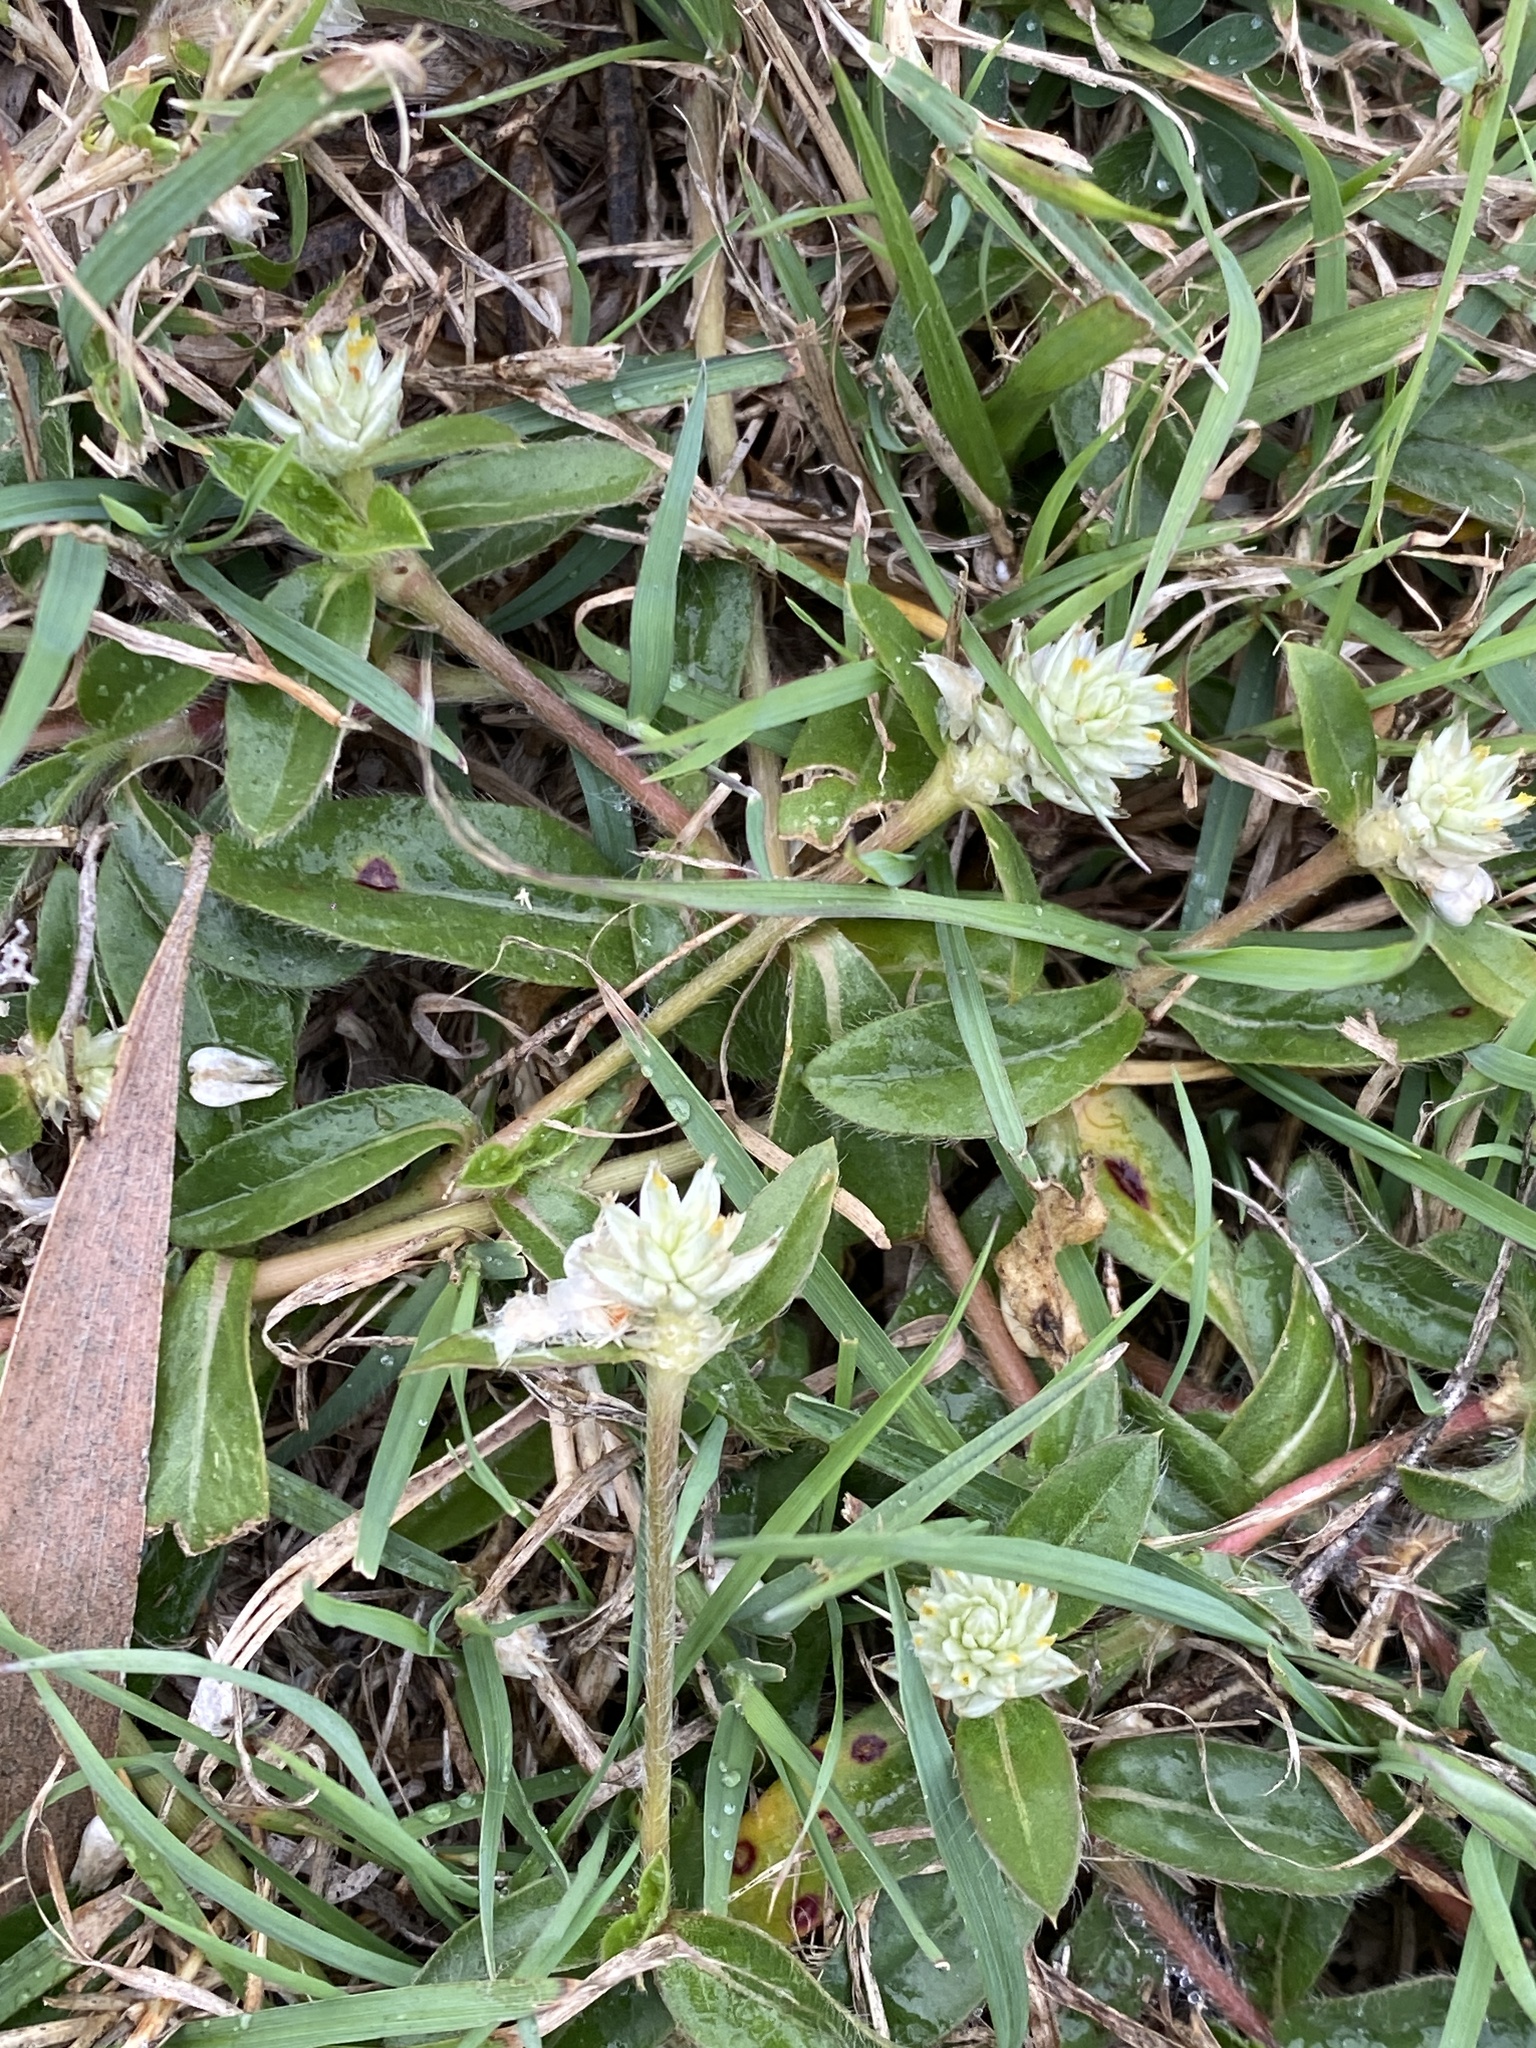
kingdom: Plantae
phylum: Tracheophyta
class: Magnoliopsida
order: Caryophyllales
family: Amaranthaceae
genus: Gomphrena
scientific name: Gomphrena celosioides
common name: Gomphrena-weed
